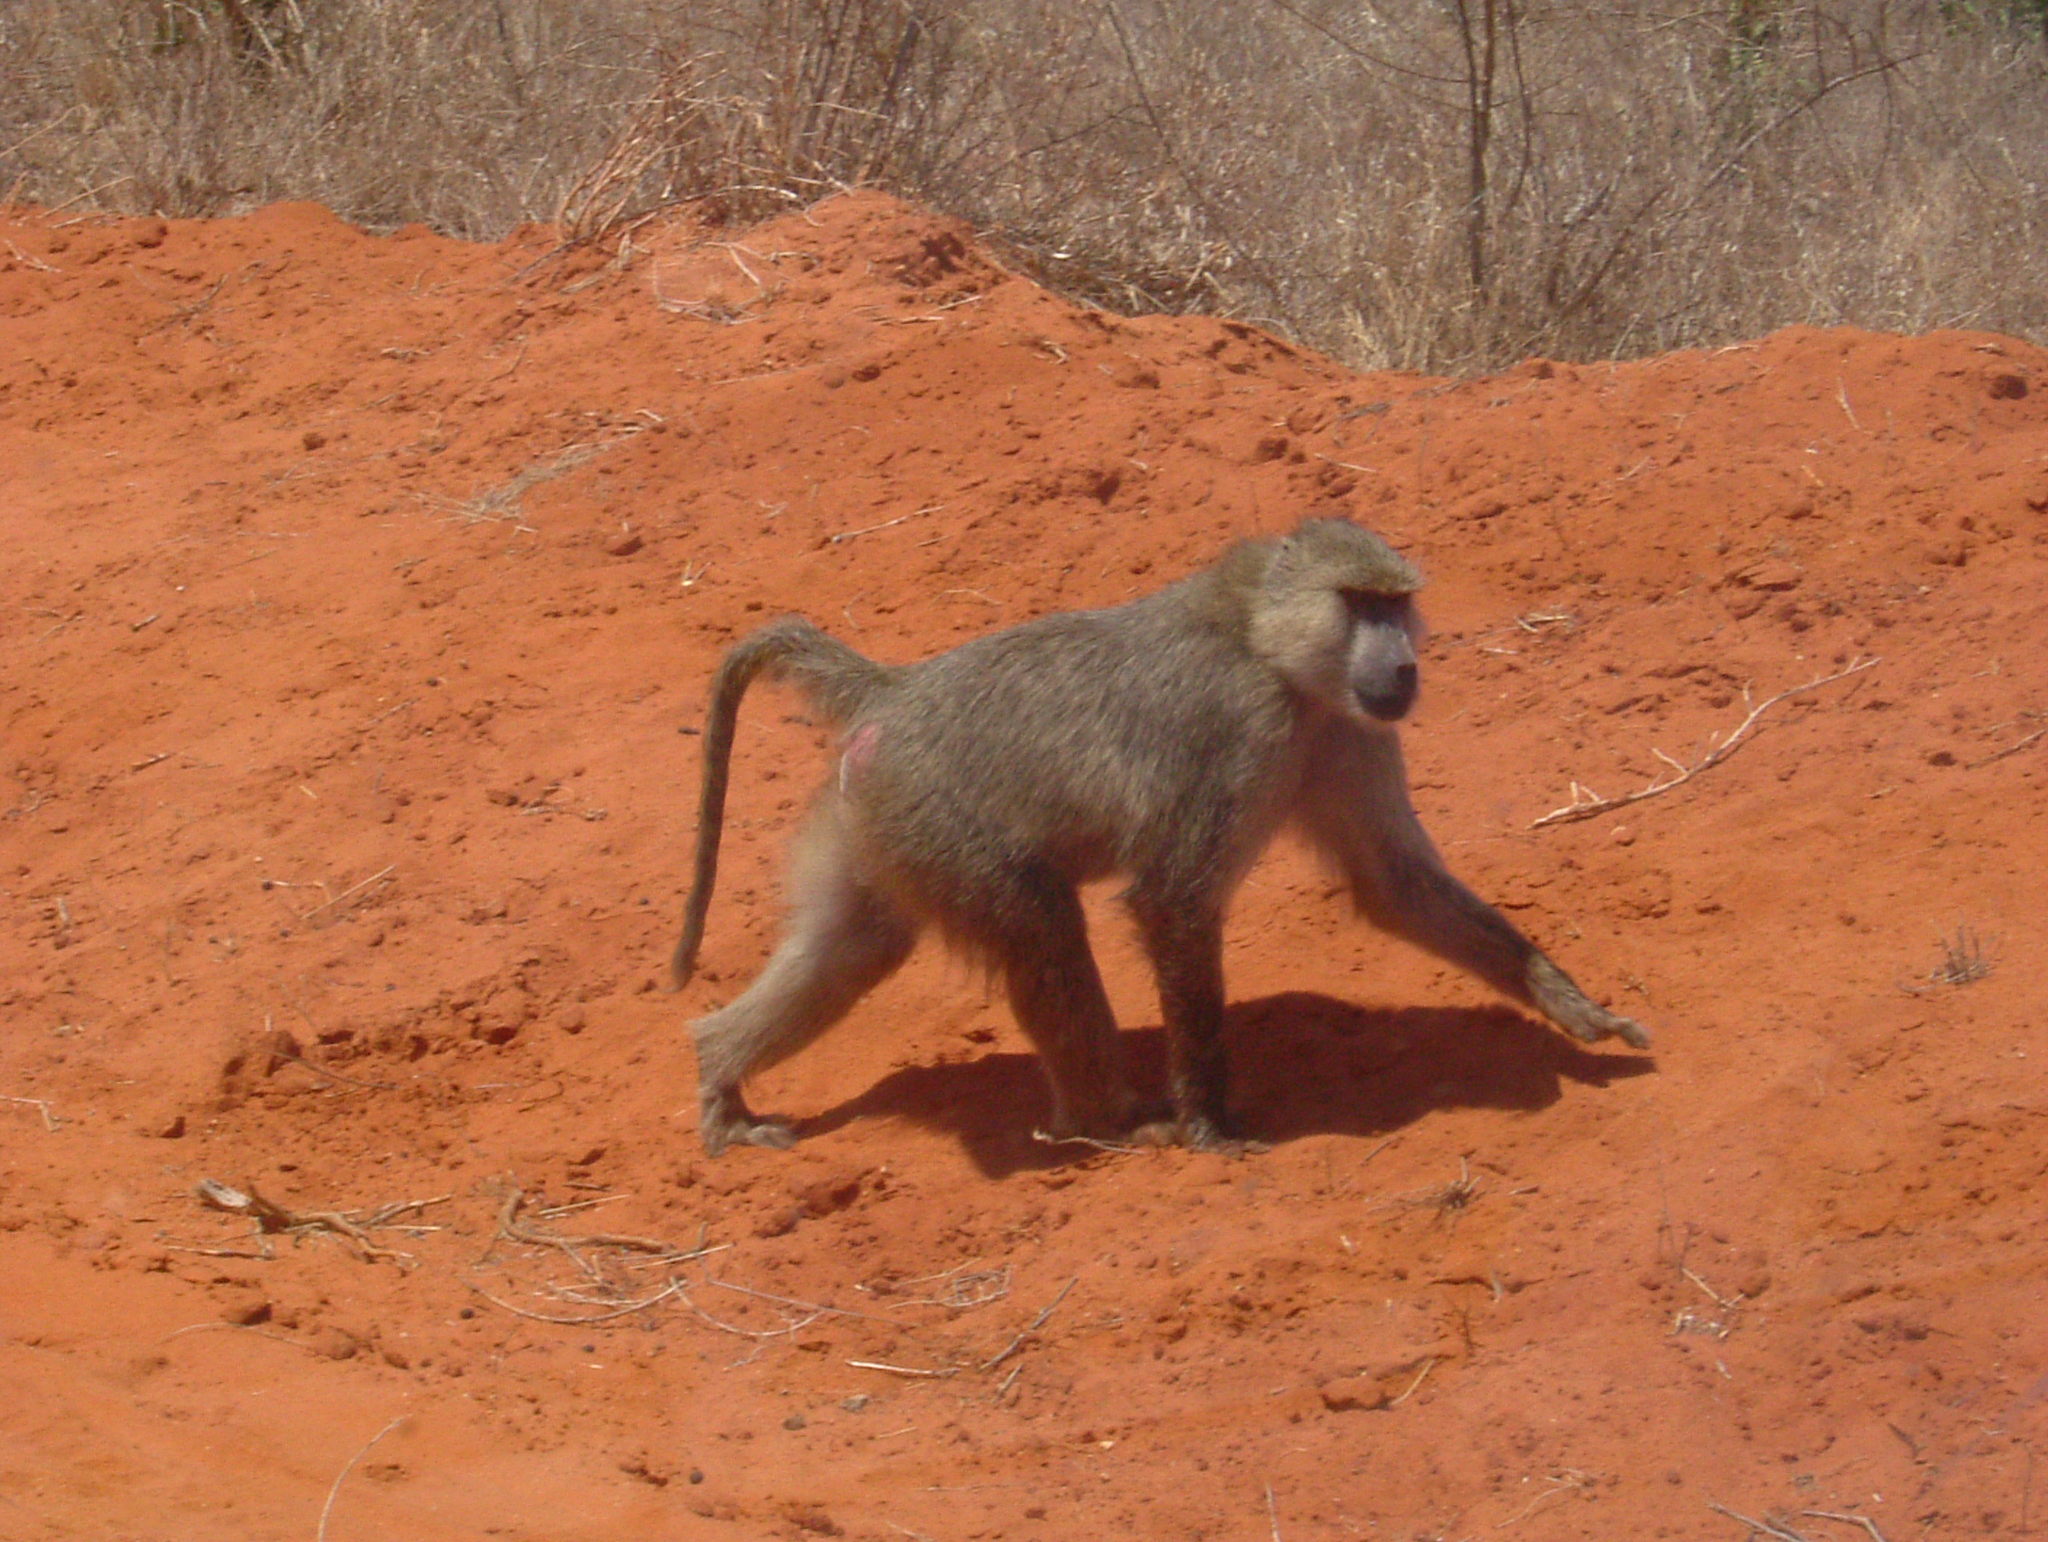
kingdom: Animalia
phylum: Chordata
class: Mammalia
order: Primates
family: Cercopithecidae
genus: Papio
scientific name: Papio cynocephalus
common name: Yellow baboon
